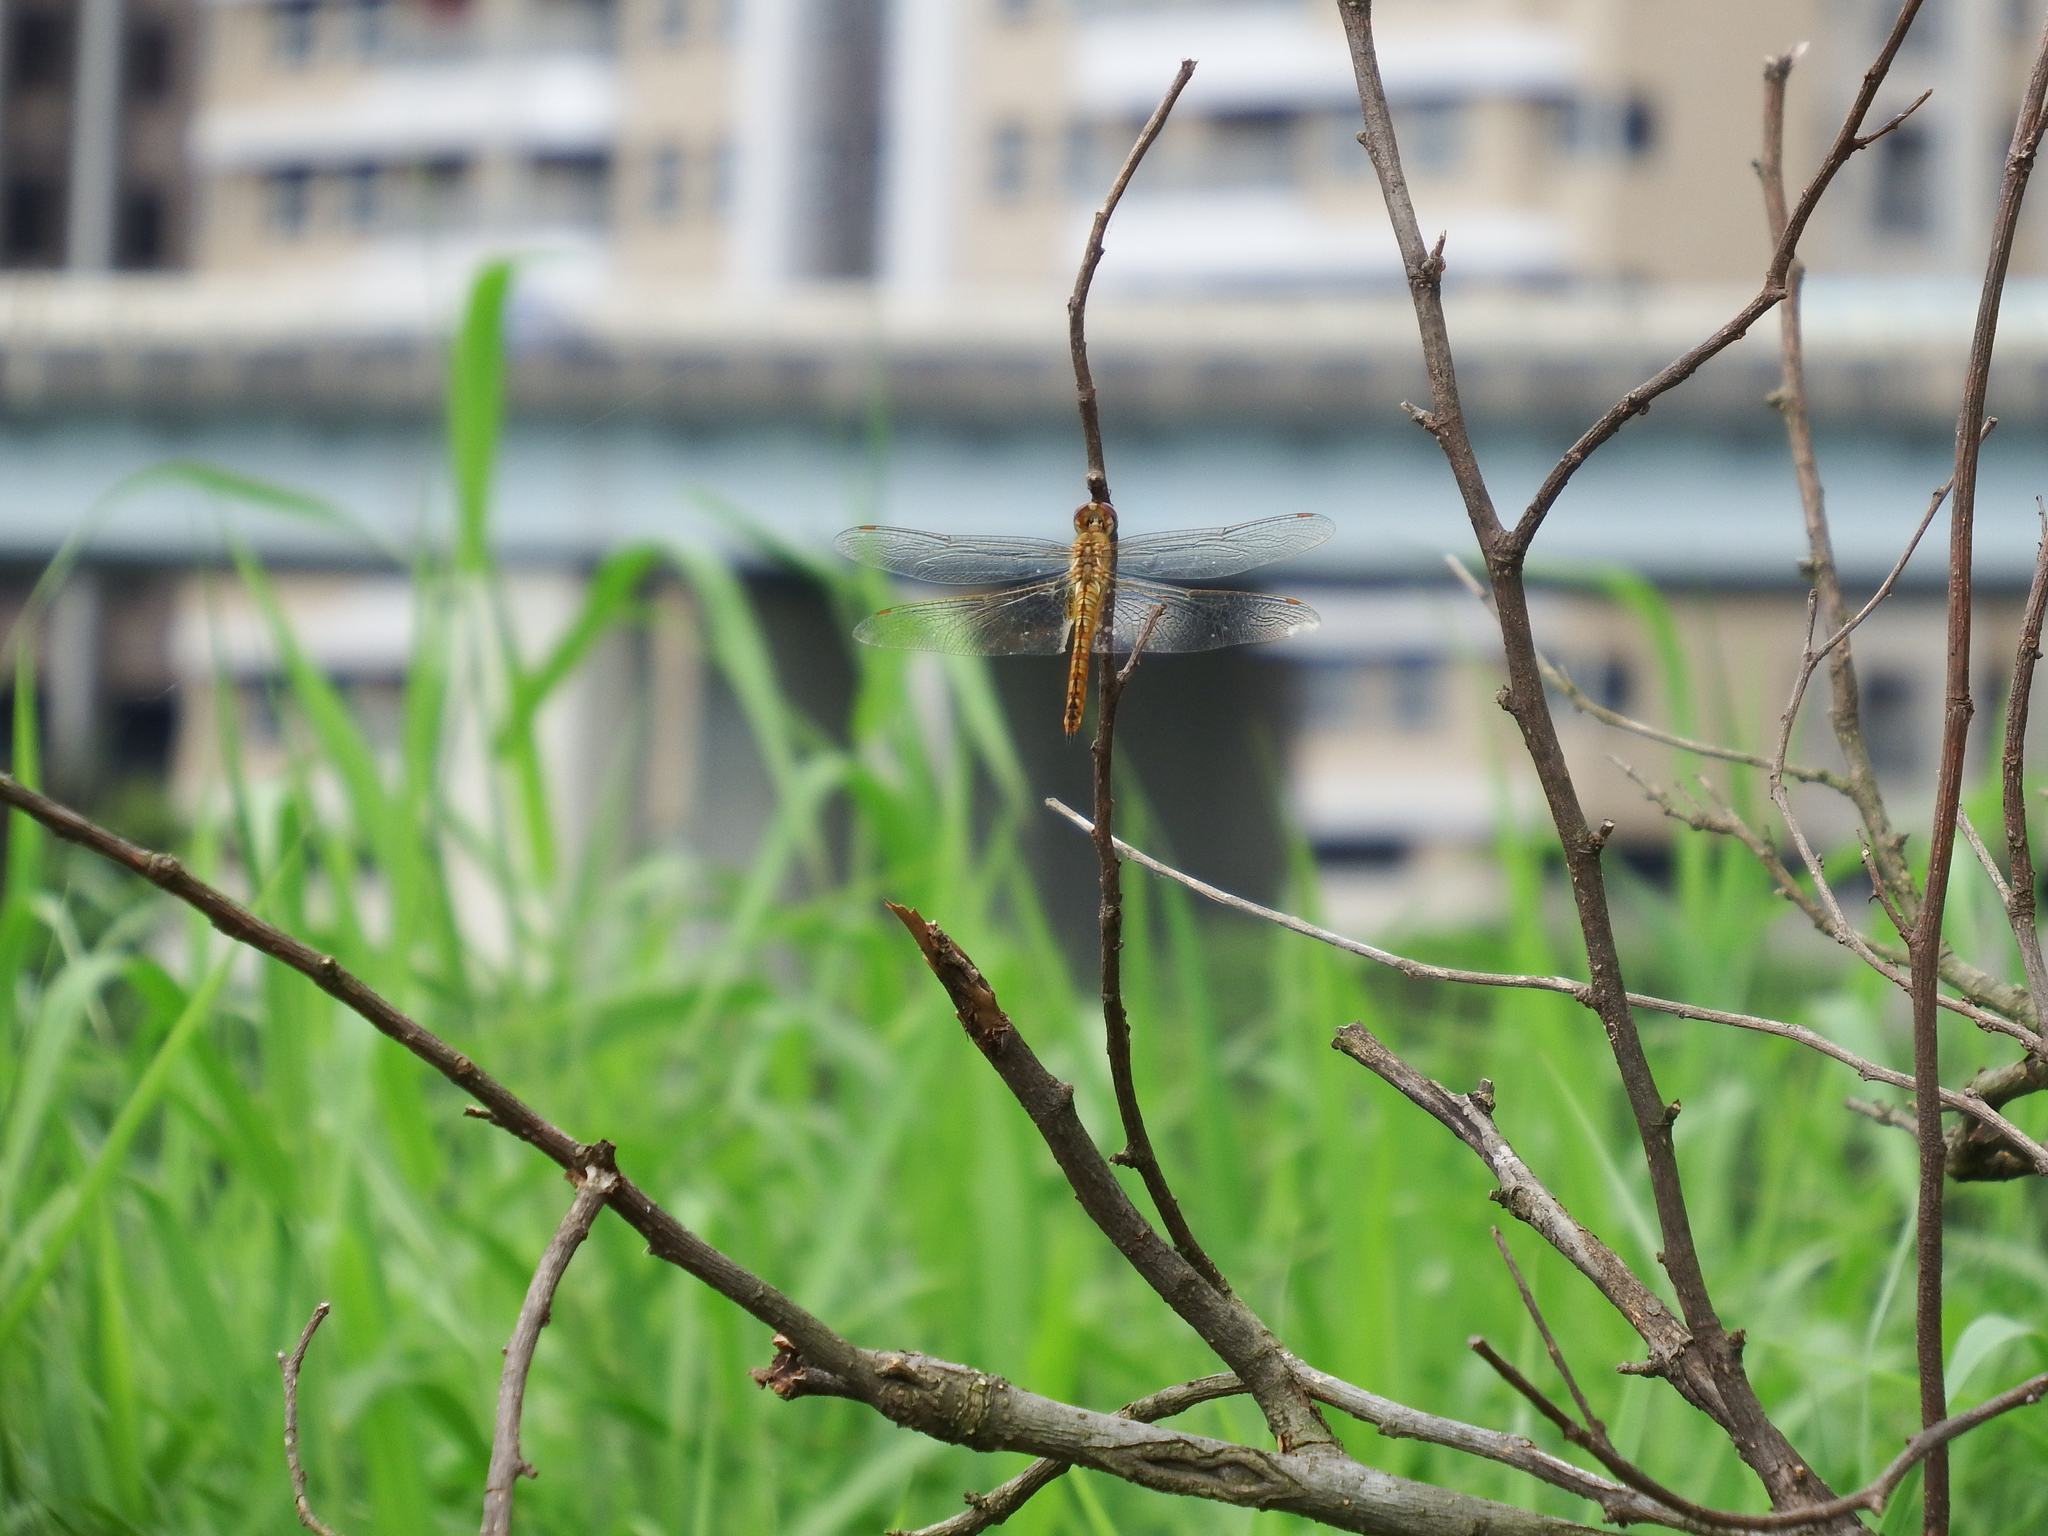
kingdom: Animalia
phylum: Arthropoda
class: Insecta
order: Odonata
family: Libellulidae
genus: Pantala
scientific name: Pantala flavescens
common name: Wandering glider
